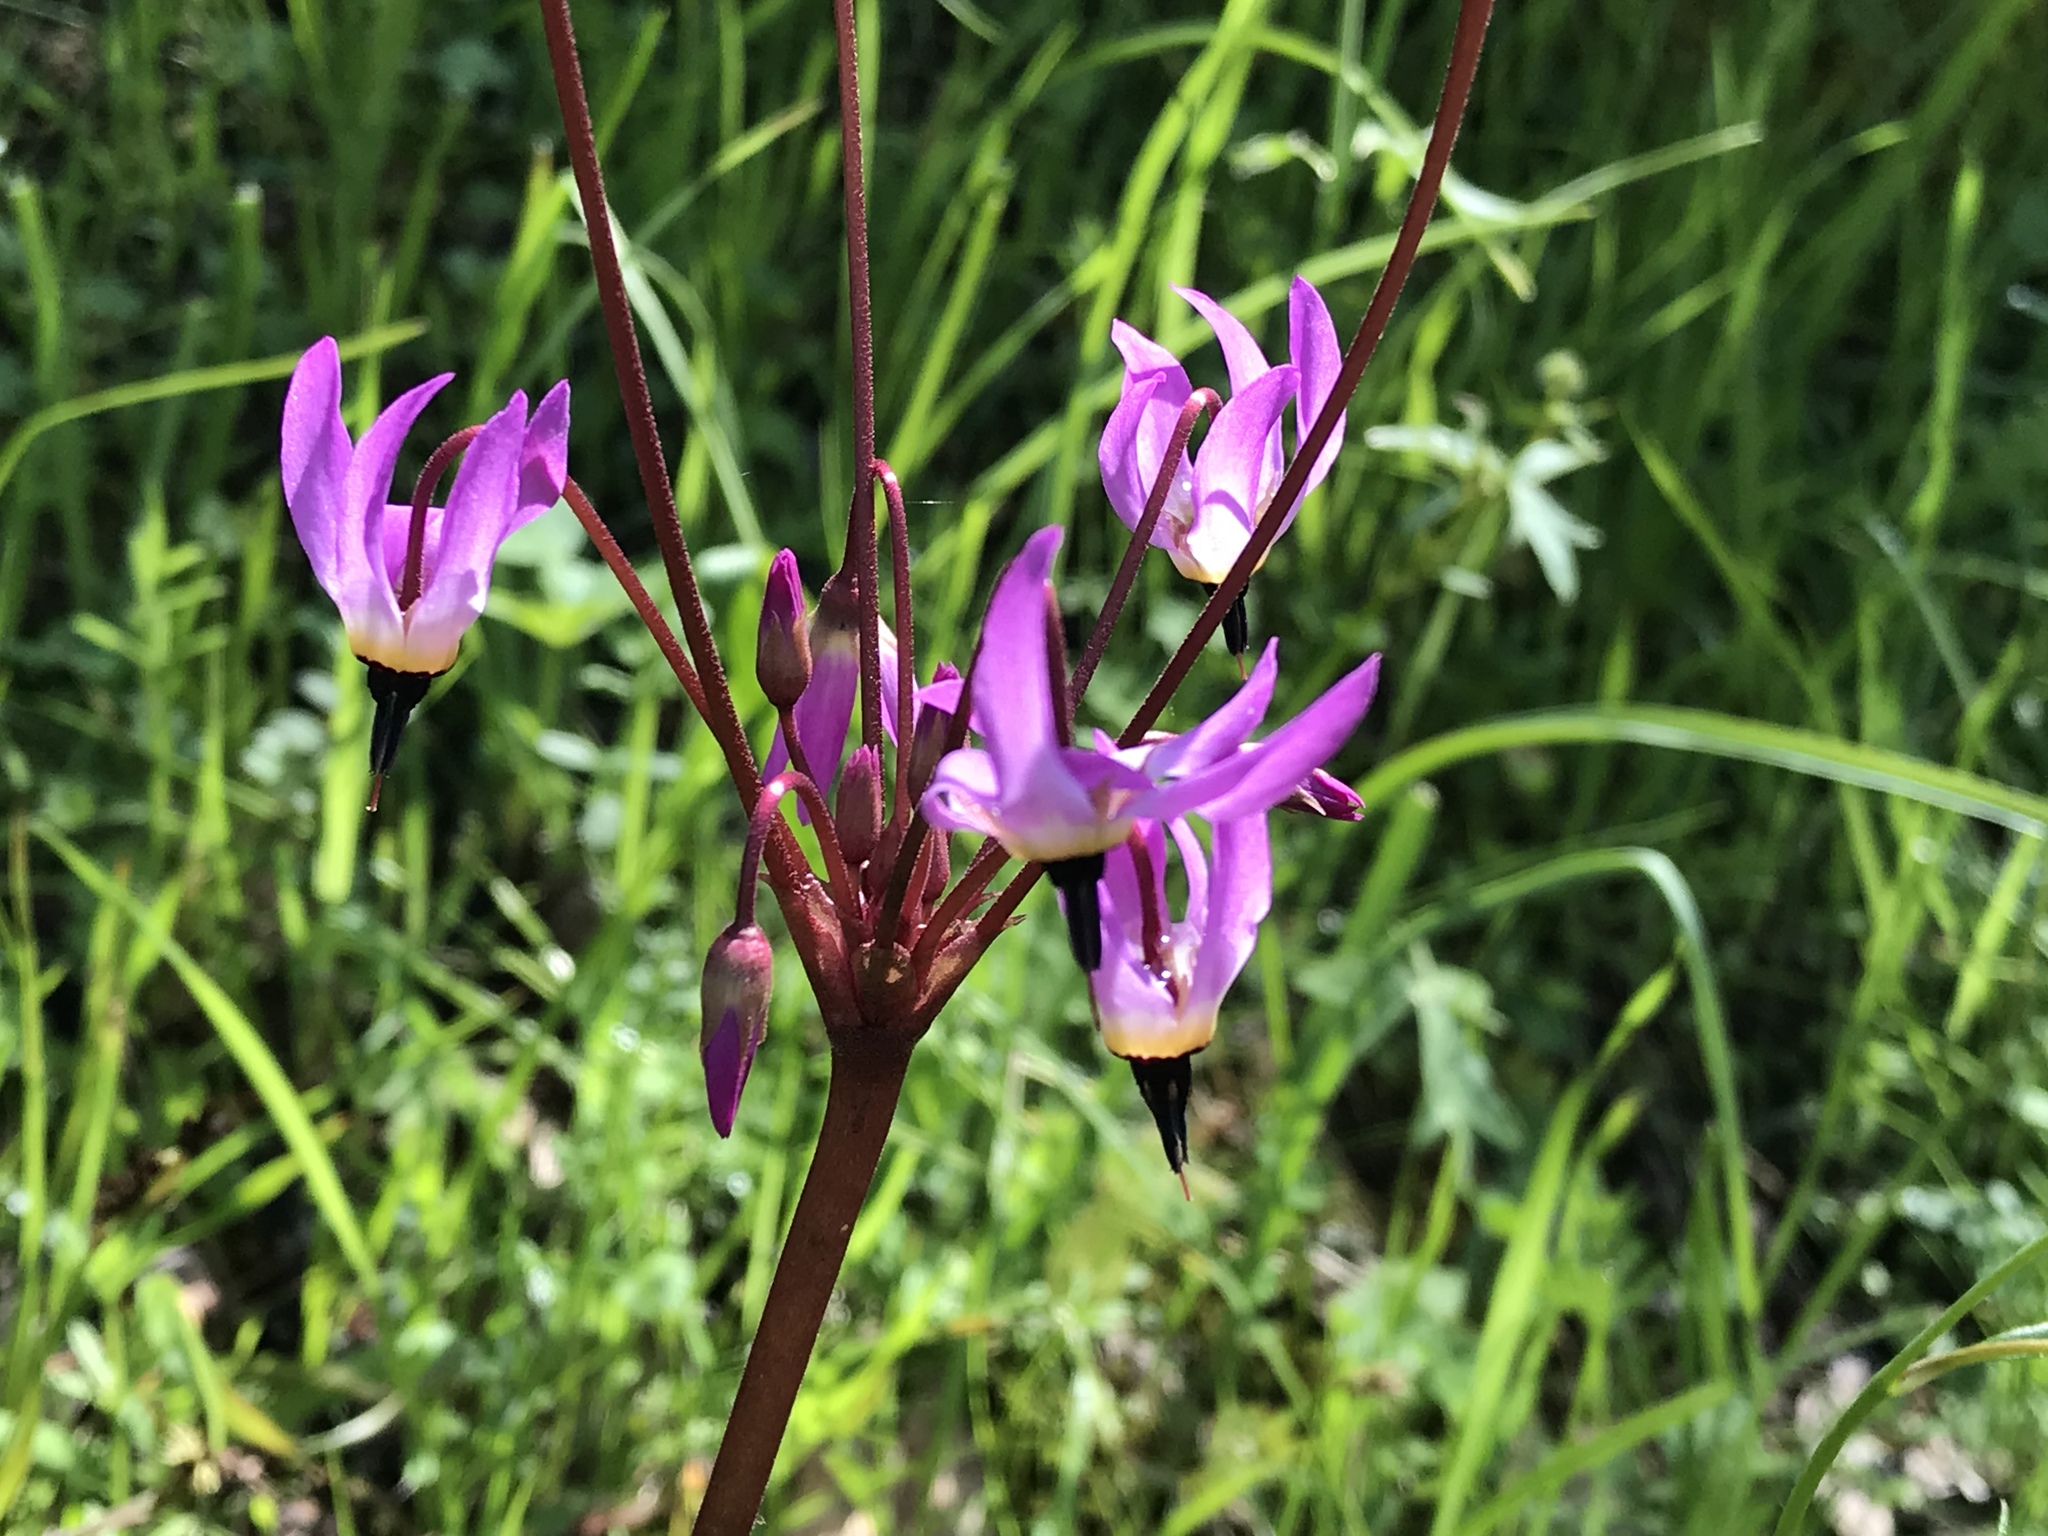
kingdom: Plantae
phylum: Tracheophyta
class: Magnoliopsida
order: Ericales
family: Primulaceae
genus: Dodecatheon
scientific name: Dodecatheon hendersonii
